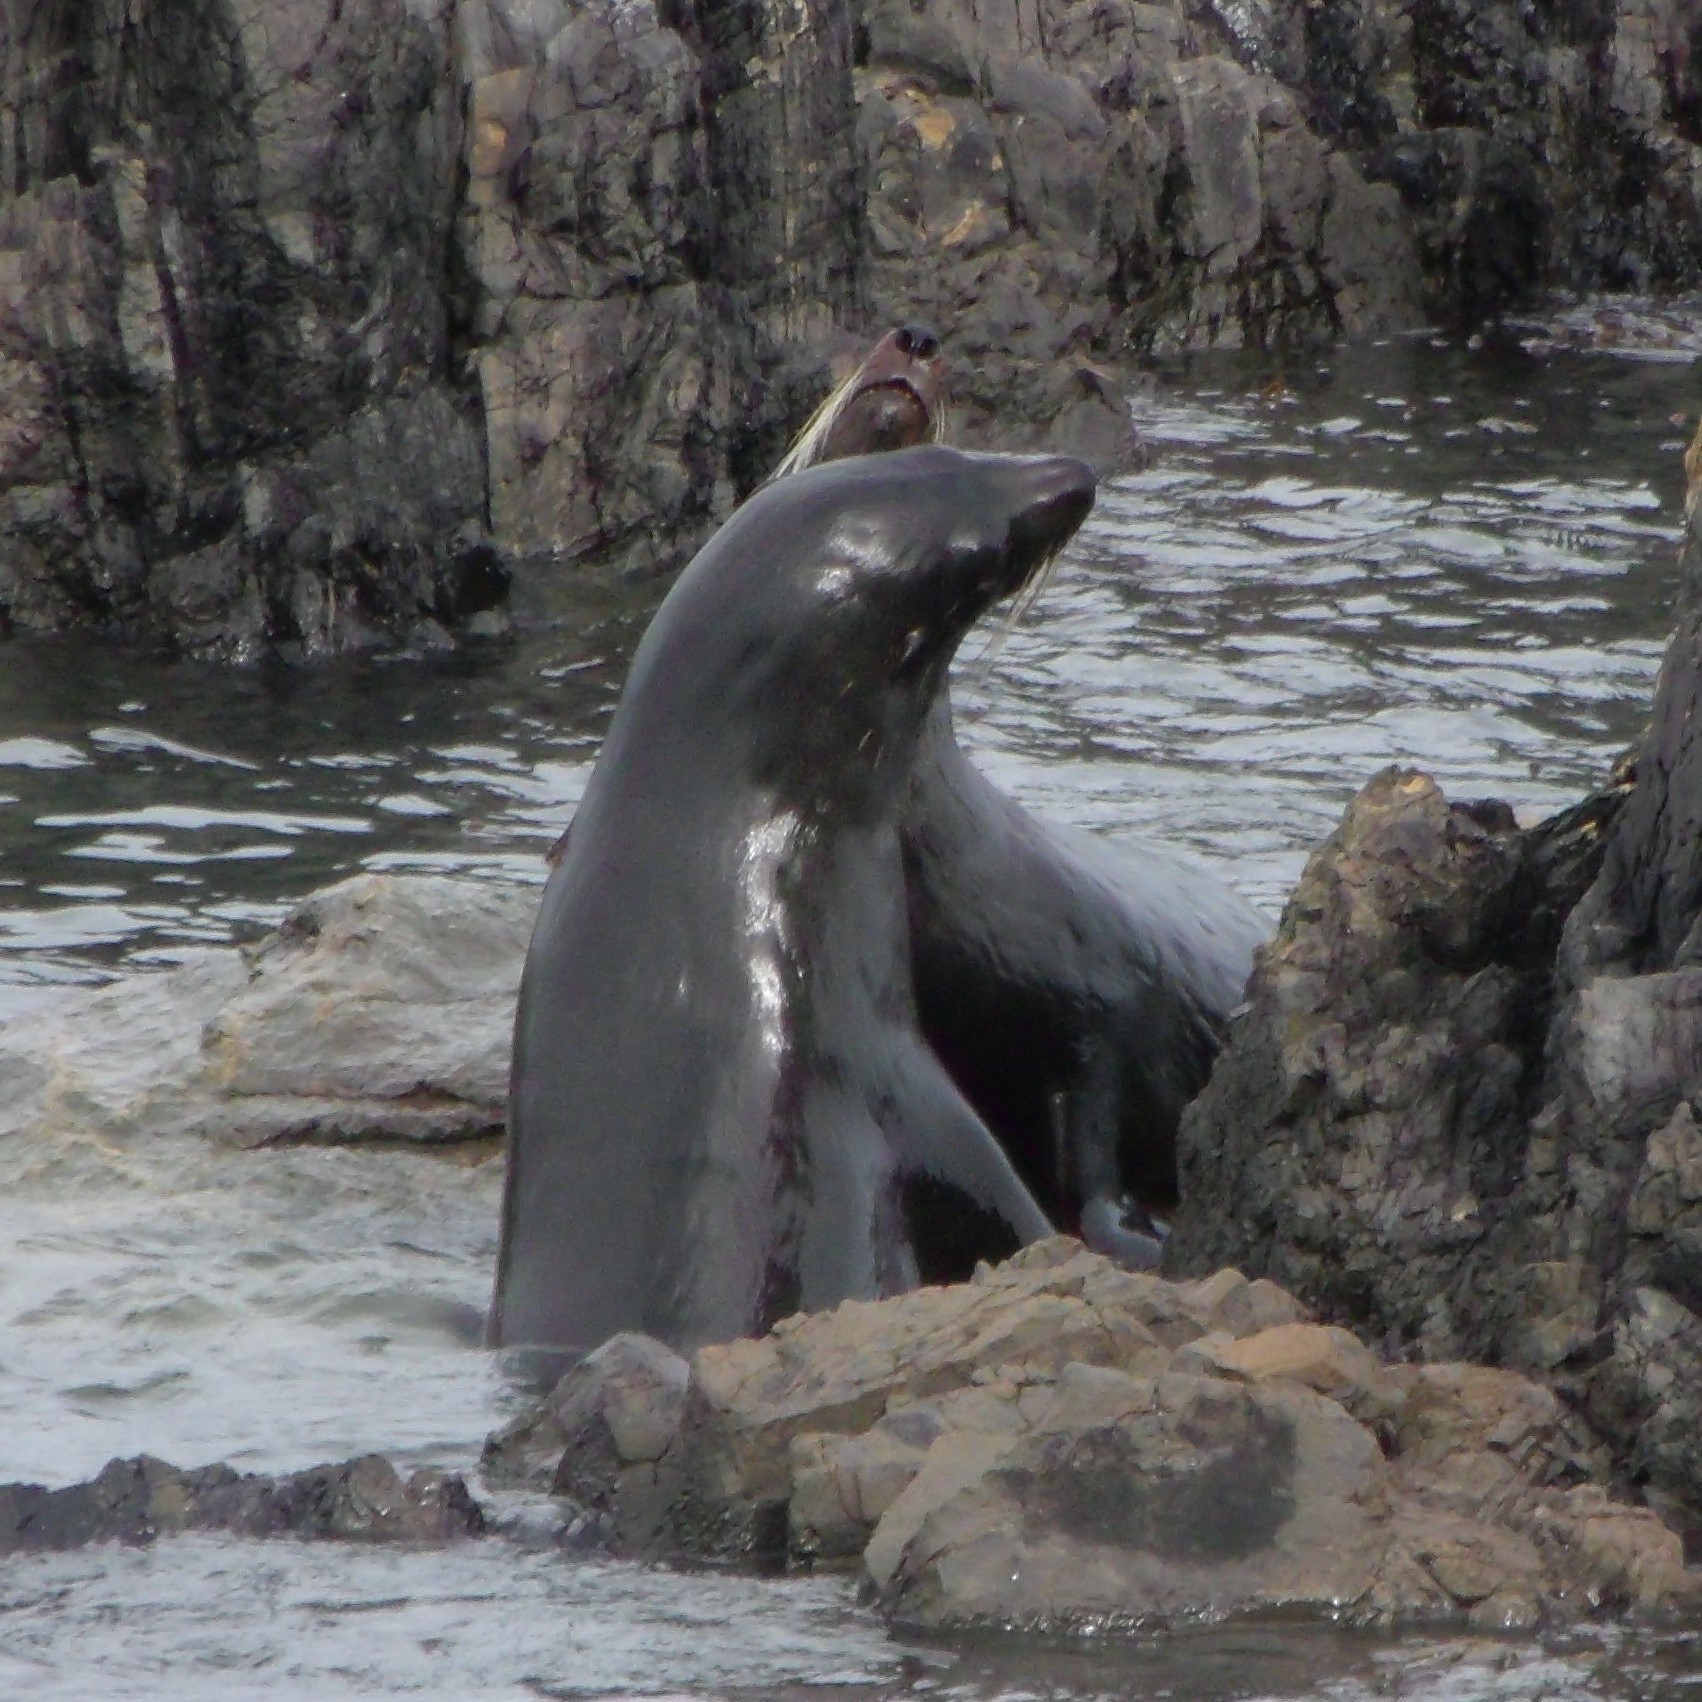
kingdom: Animalia
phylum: Chordata
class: Mammalia
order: Carnivora
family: Otariidae
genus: Arctocephalus
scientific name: Arctocephalus forsteri
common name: New zealand fur seal
